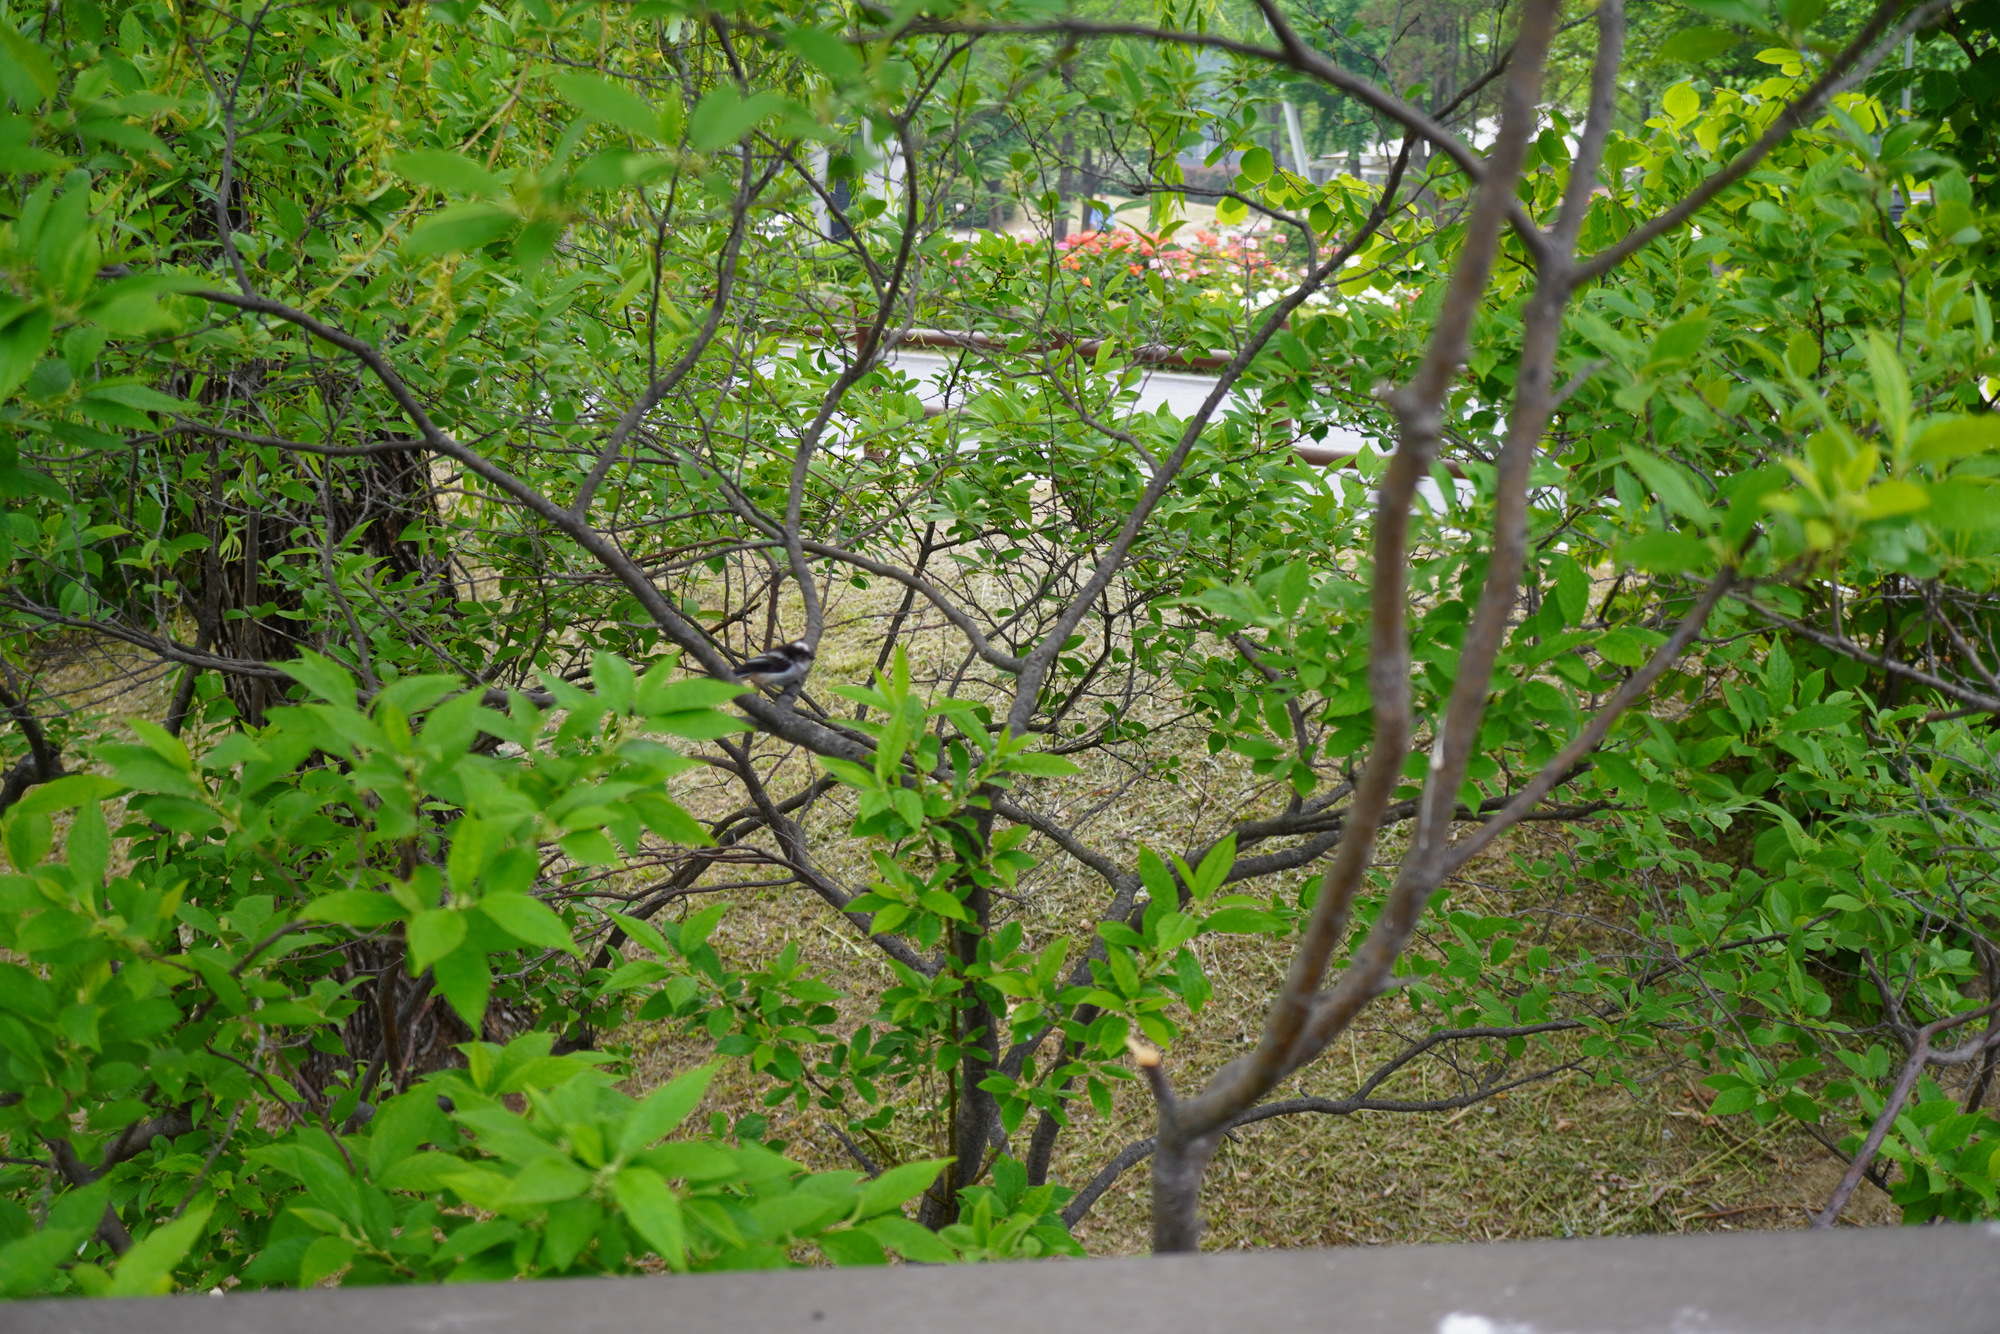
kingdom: Animalia
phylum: Chordata
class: Aves
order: Passeriformes
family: Aegithalidae
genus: Aegithalos
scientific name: Aegithalos caudatus
